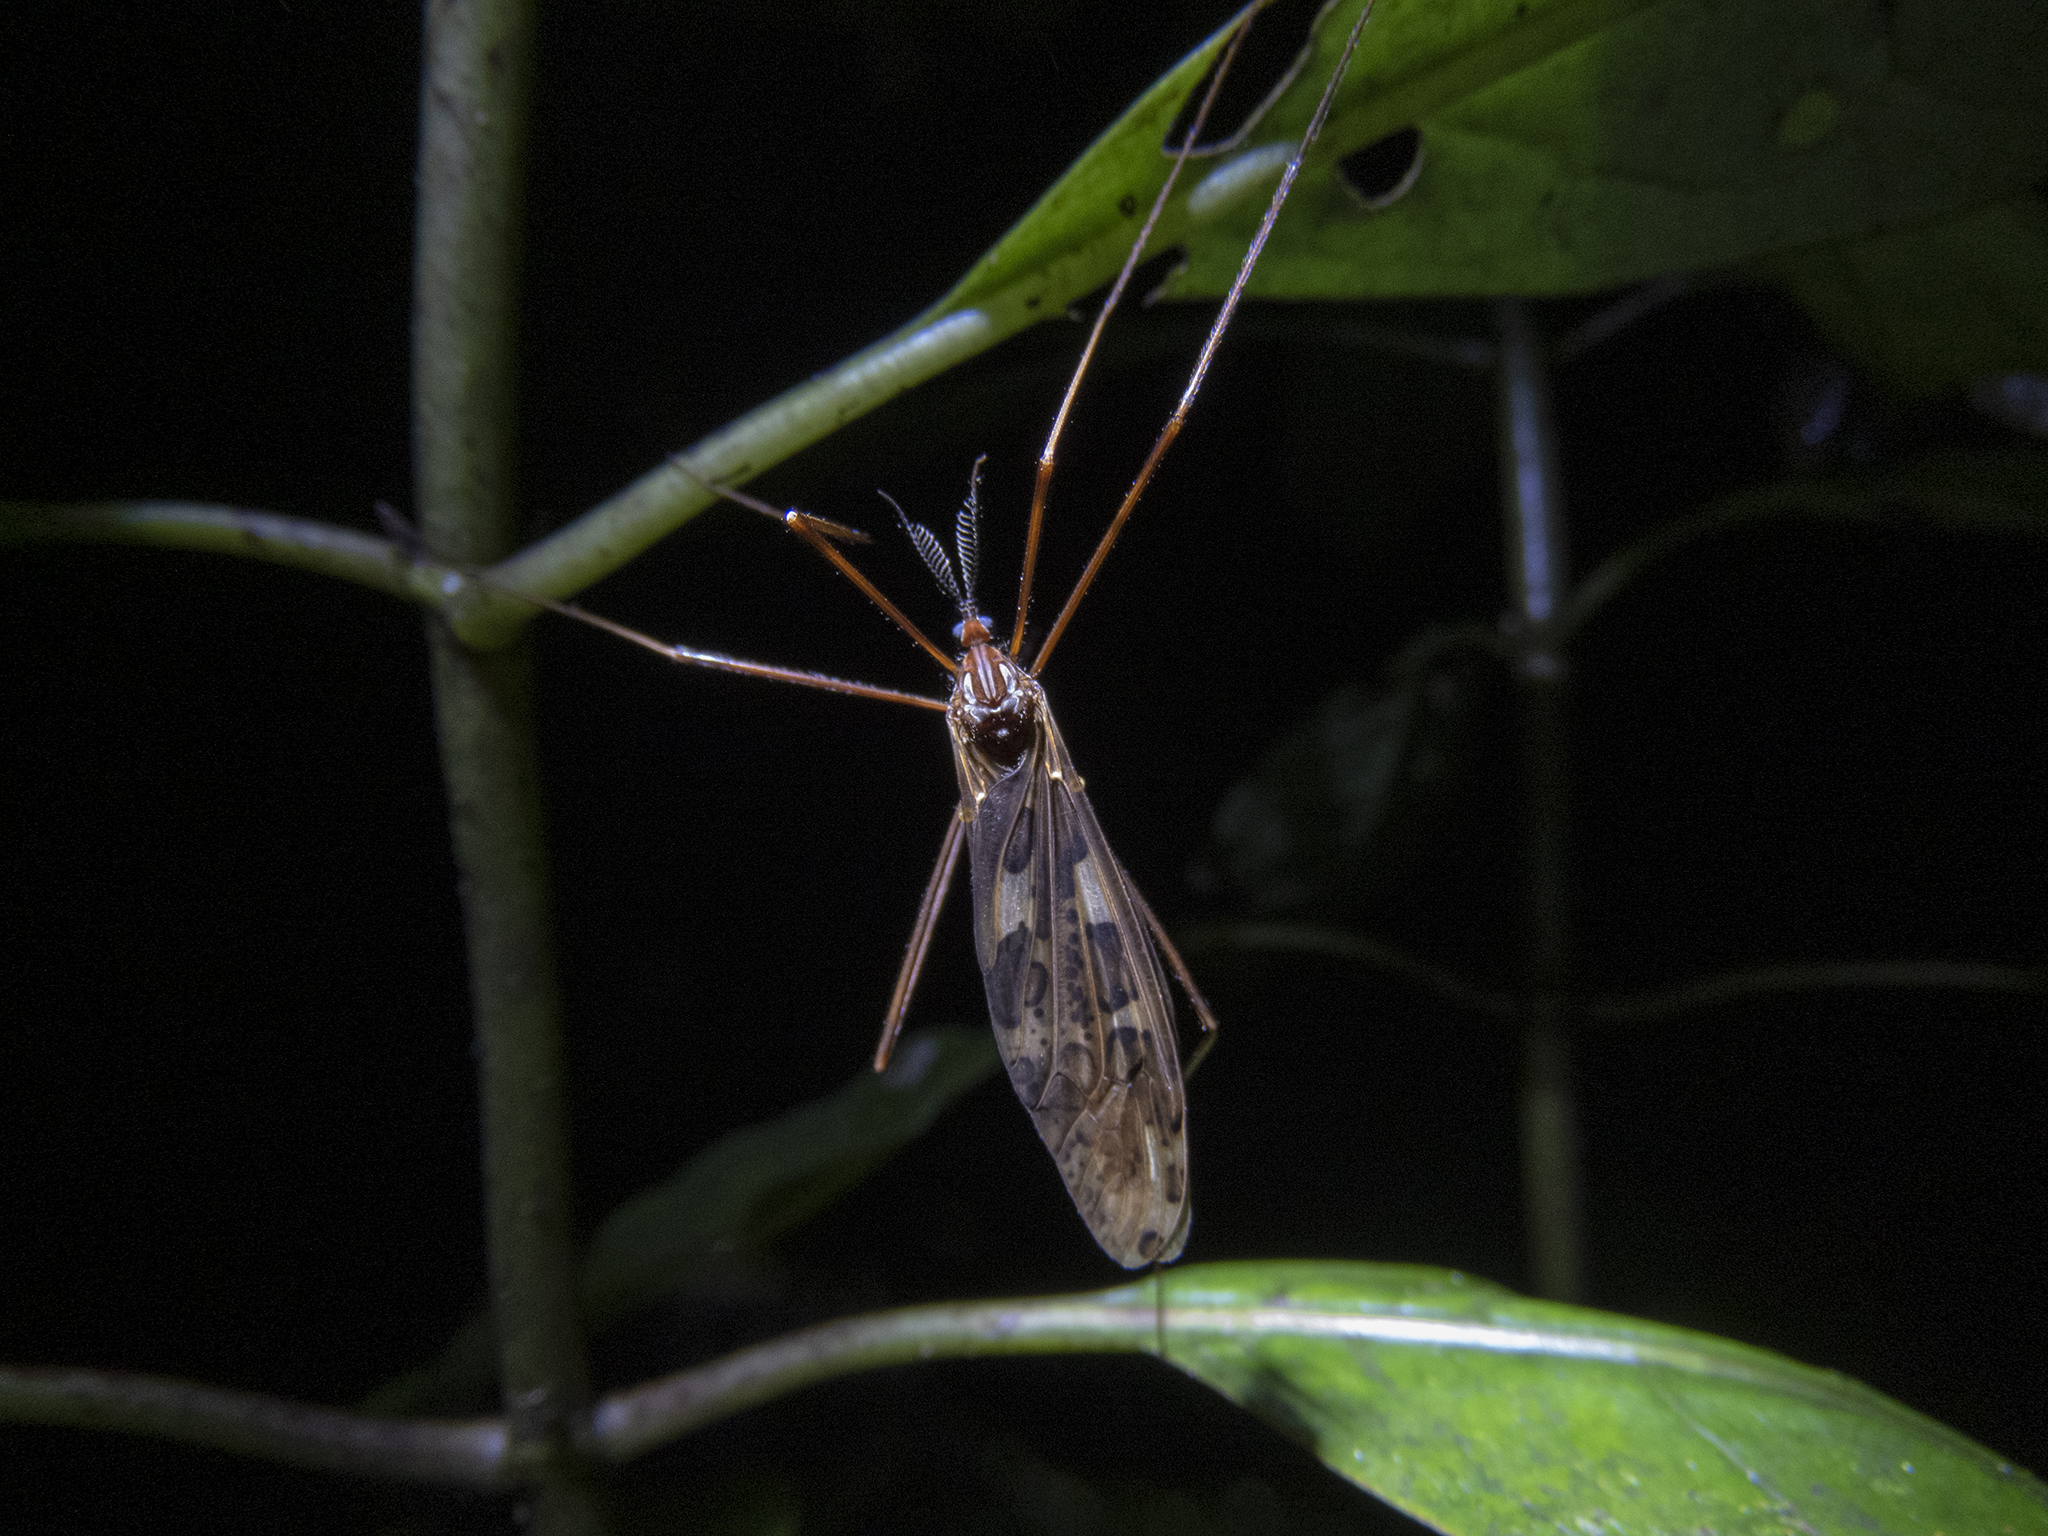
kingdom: Animalia
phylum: Arthropoda
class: Insecta
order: Diptera
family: Limoniidae
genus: Gynoplistia
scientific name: Gynoplistia ocellifera
